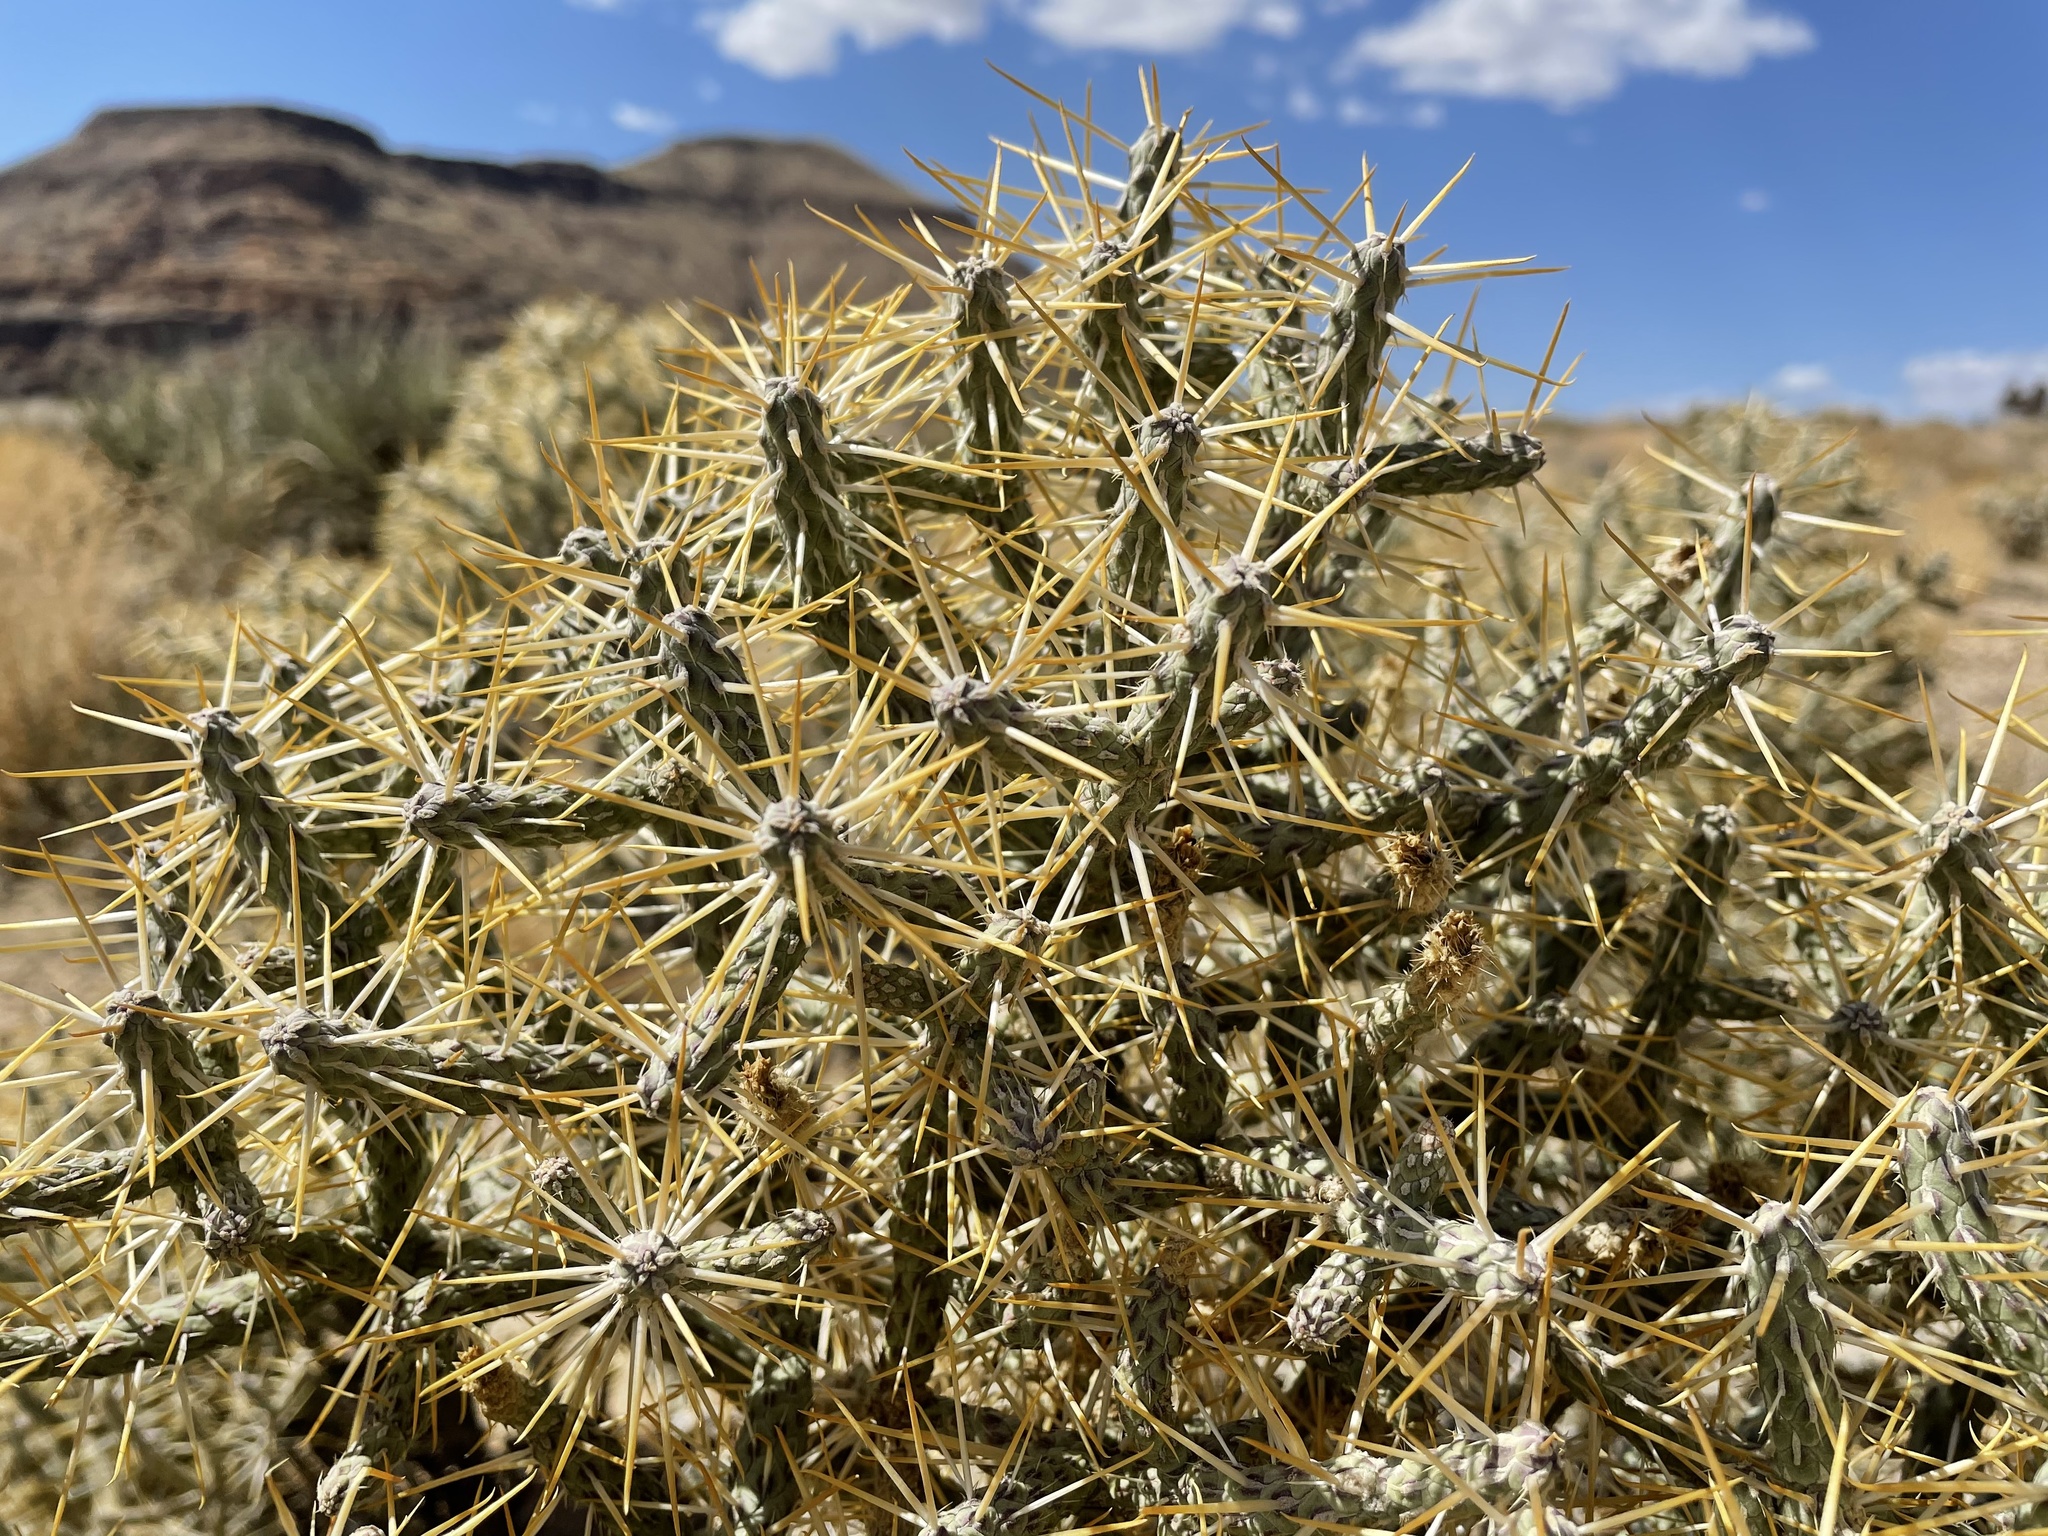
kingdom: Plantae
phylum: Tracheophyta
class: Magnoliopsida
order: Caryophyllales
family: Cactaceae
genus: Cylindropuntia
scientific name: Cylindropuntia ramosissima
